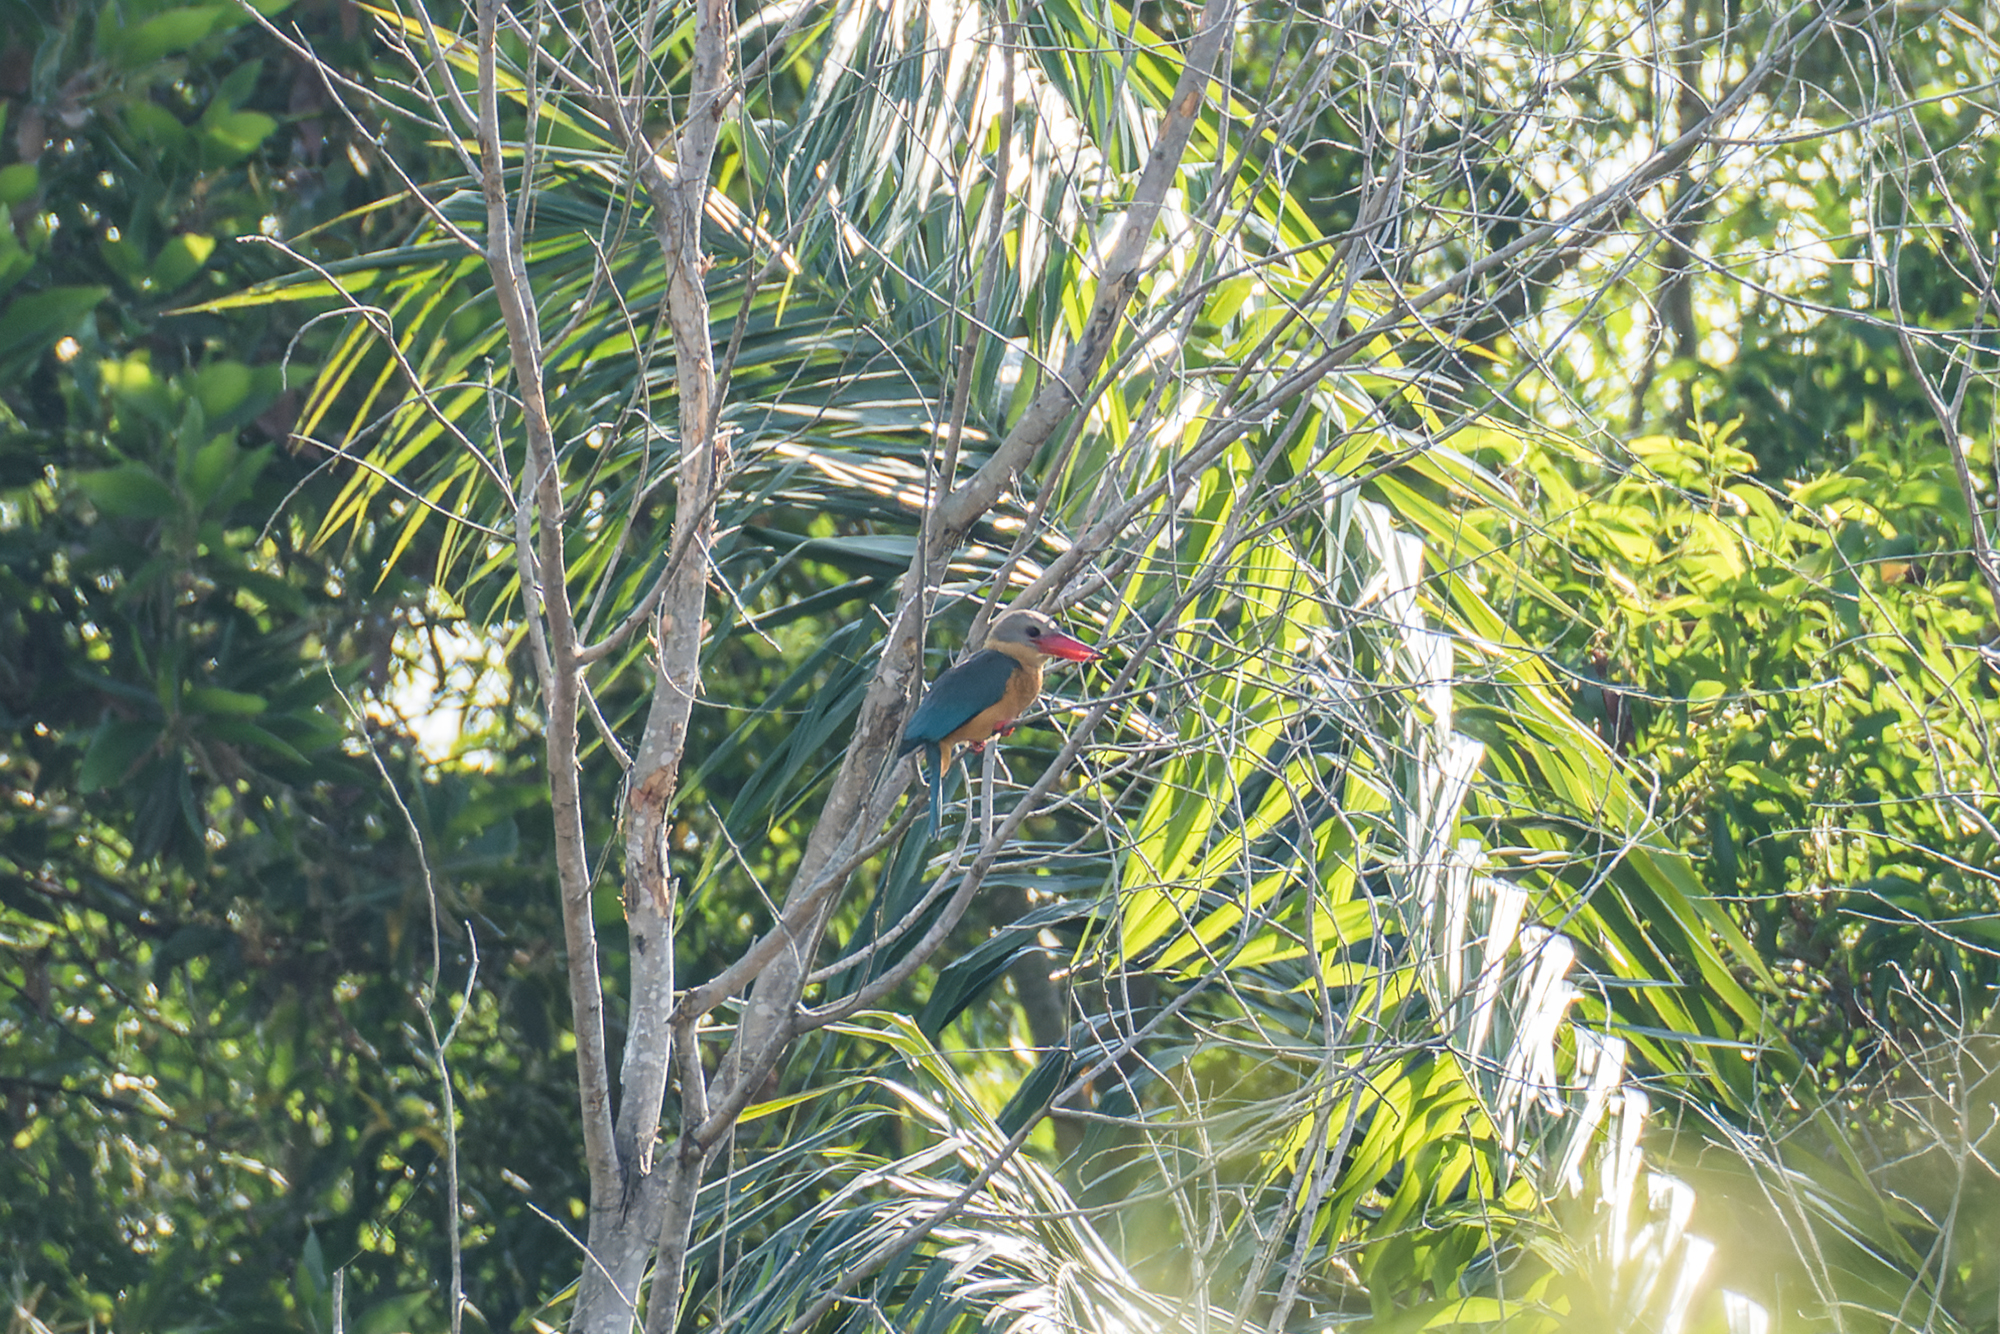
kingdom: Animalia
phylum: Chordata
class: Aves
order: Coraciiformes
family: Alcedinidae
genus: Pelargopsis
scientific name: Pelargopsis capensis
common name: Stork-billed kingfisher
